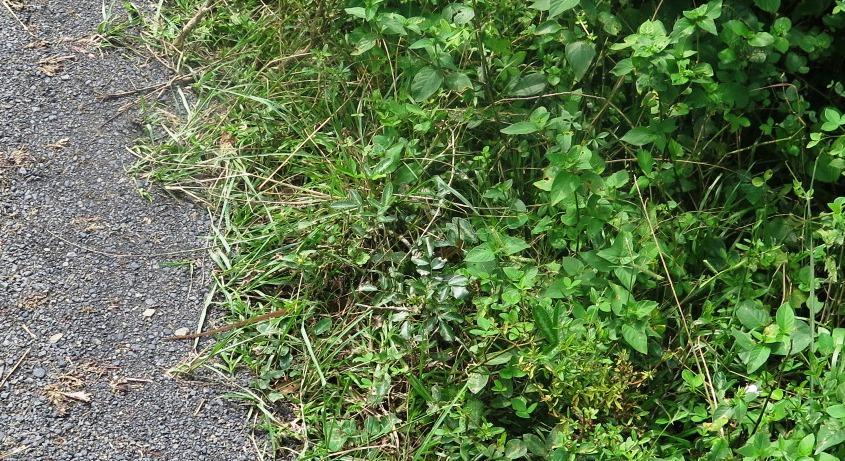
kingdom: Animalia
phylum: Chordata
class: Squamata
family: Lamprophiidae
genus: Boaedon
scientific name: Boaedon capensis
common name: Brown house snake
